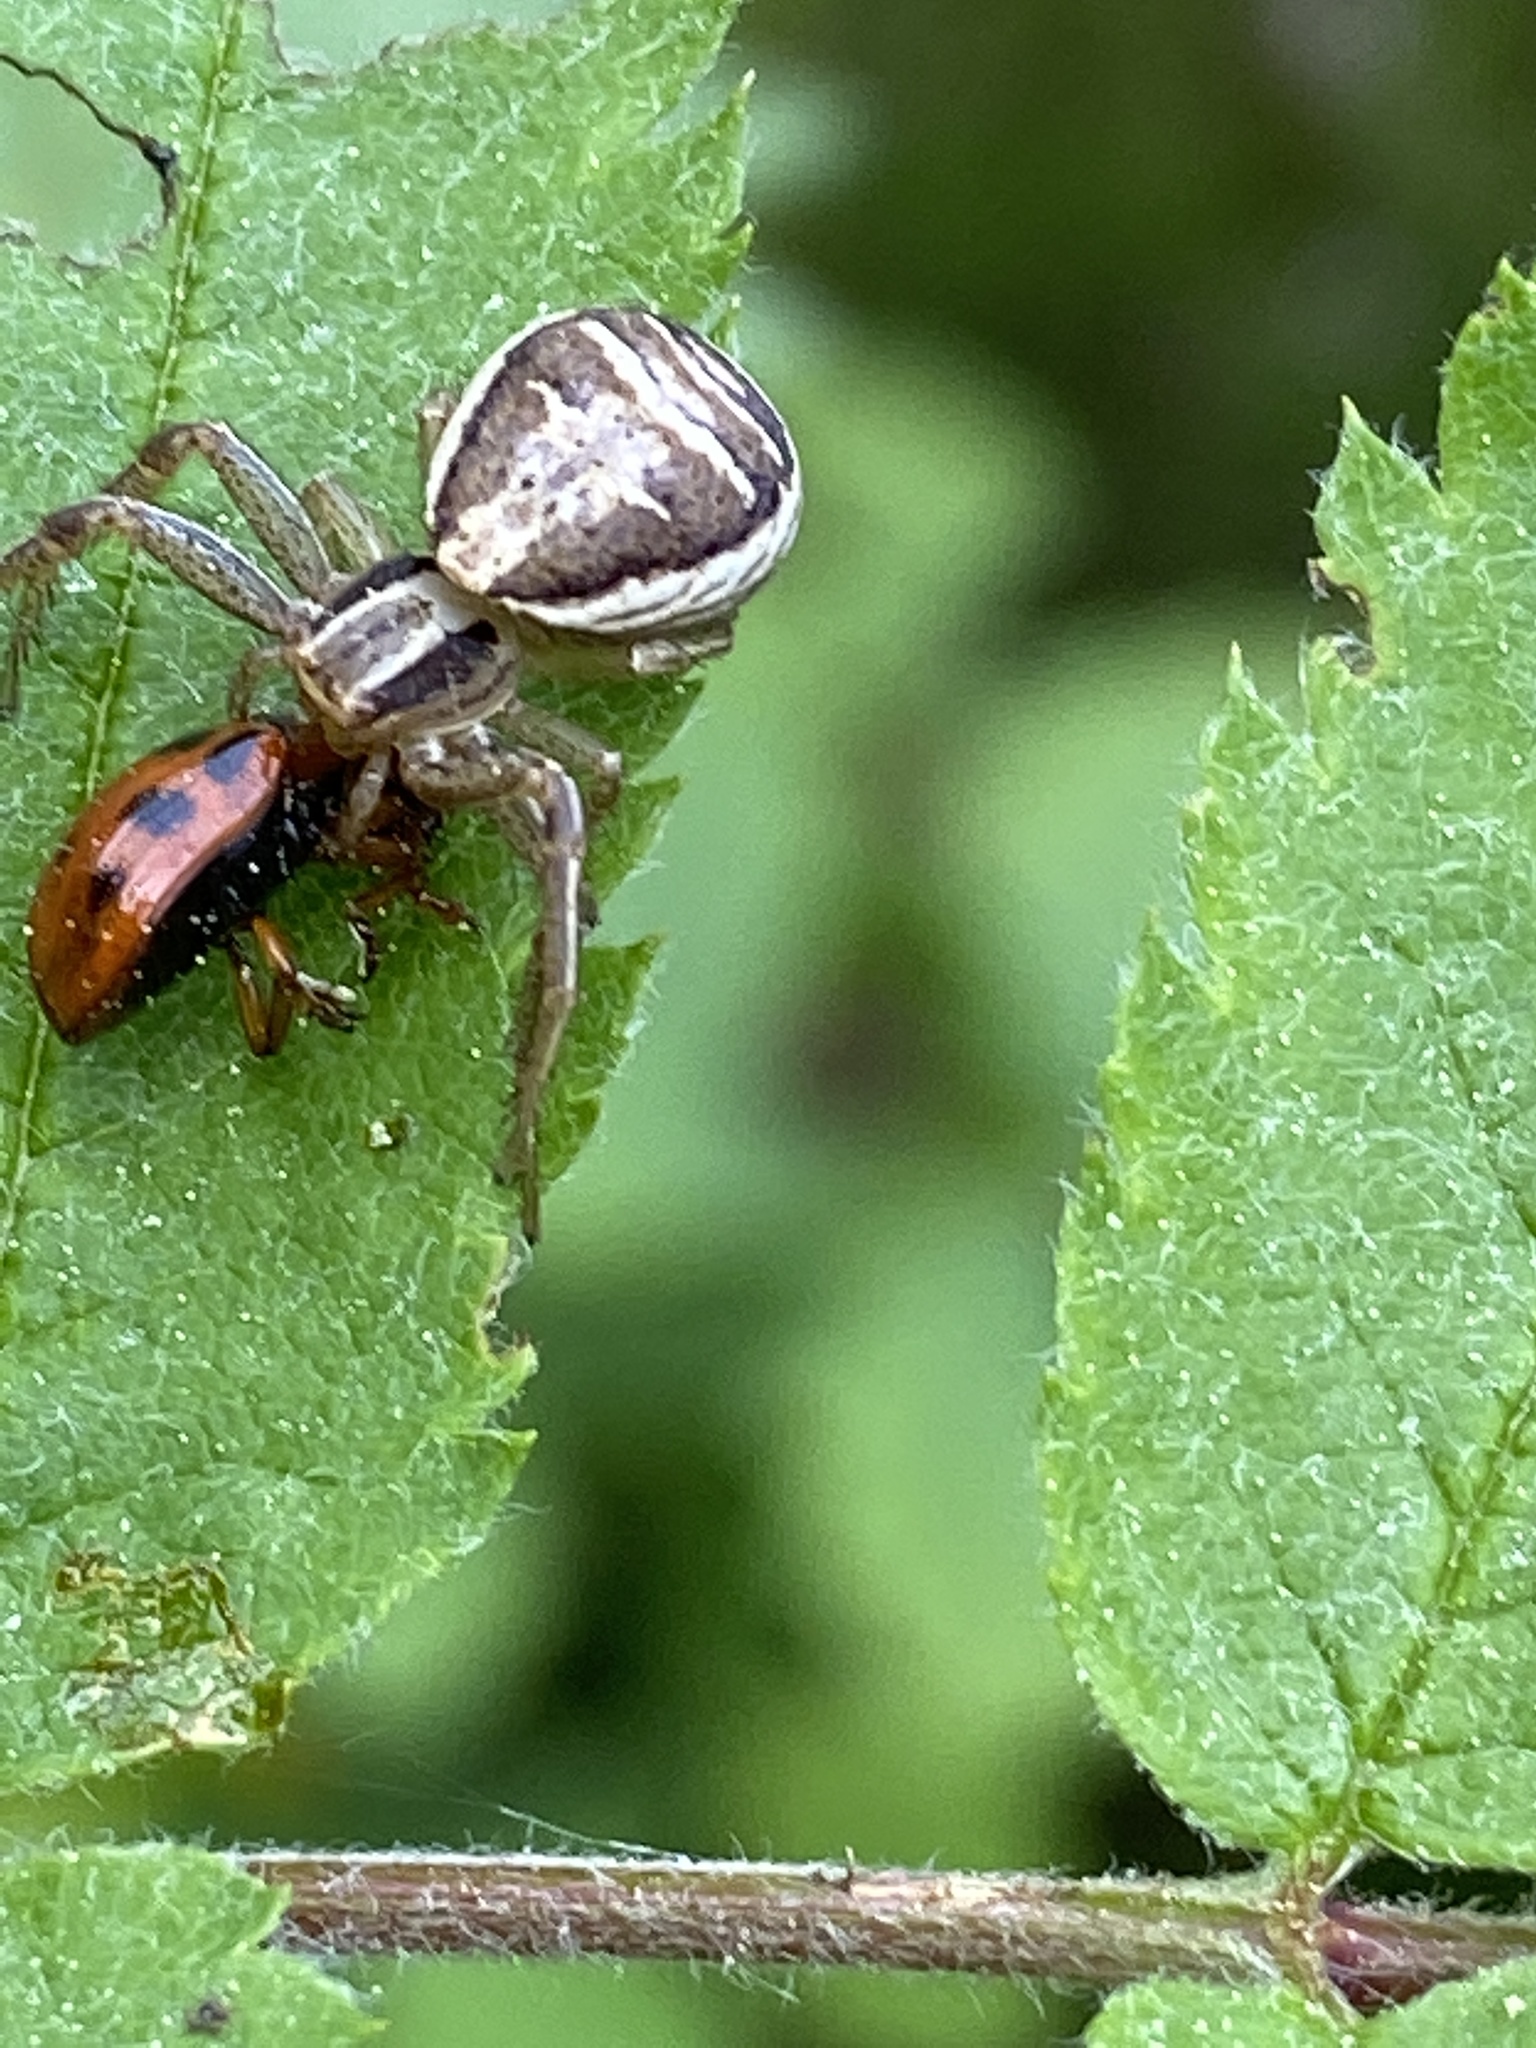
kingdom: Animalia
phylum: Arthropoda
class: Arachnida
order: Araneae
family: Thomisidae
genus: Xysticus
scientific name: Xysticus ulmi
